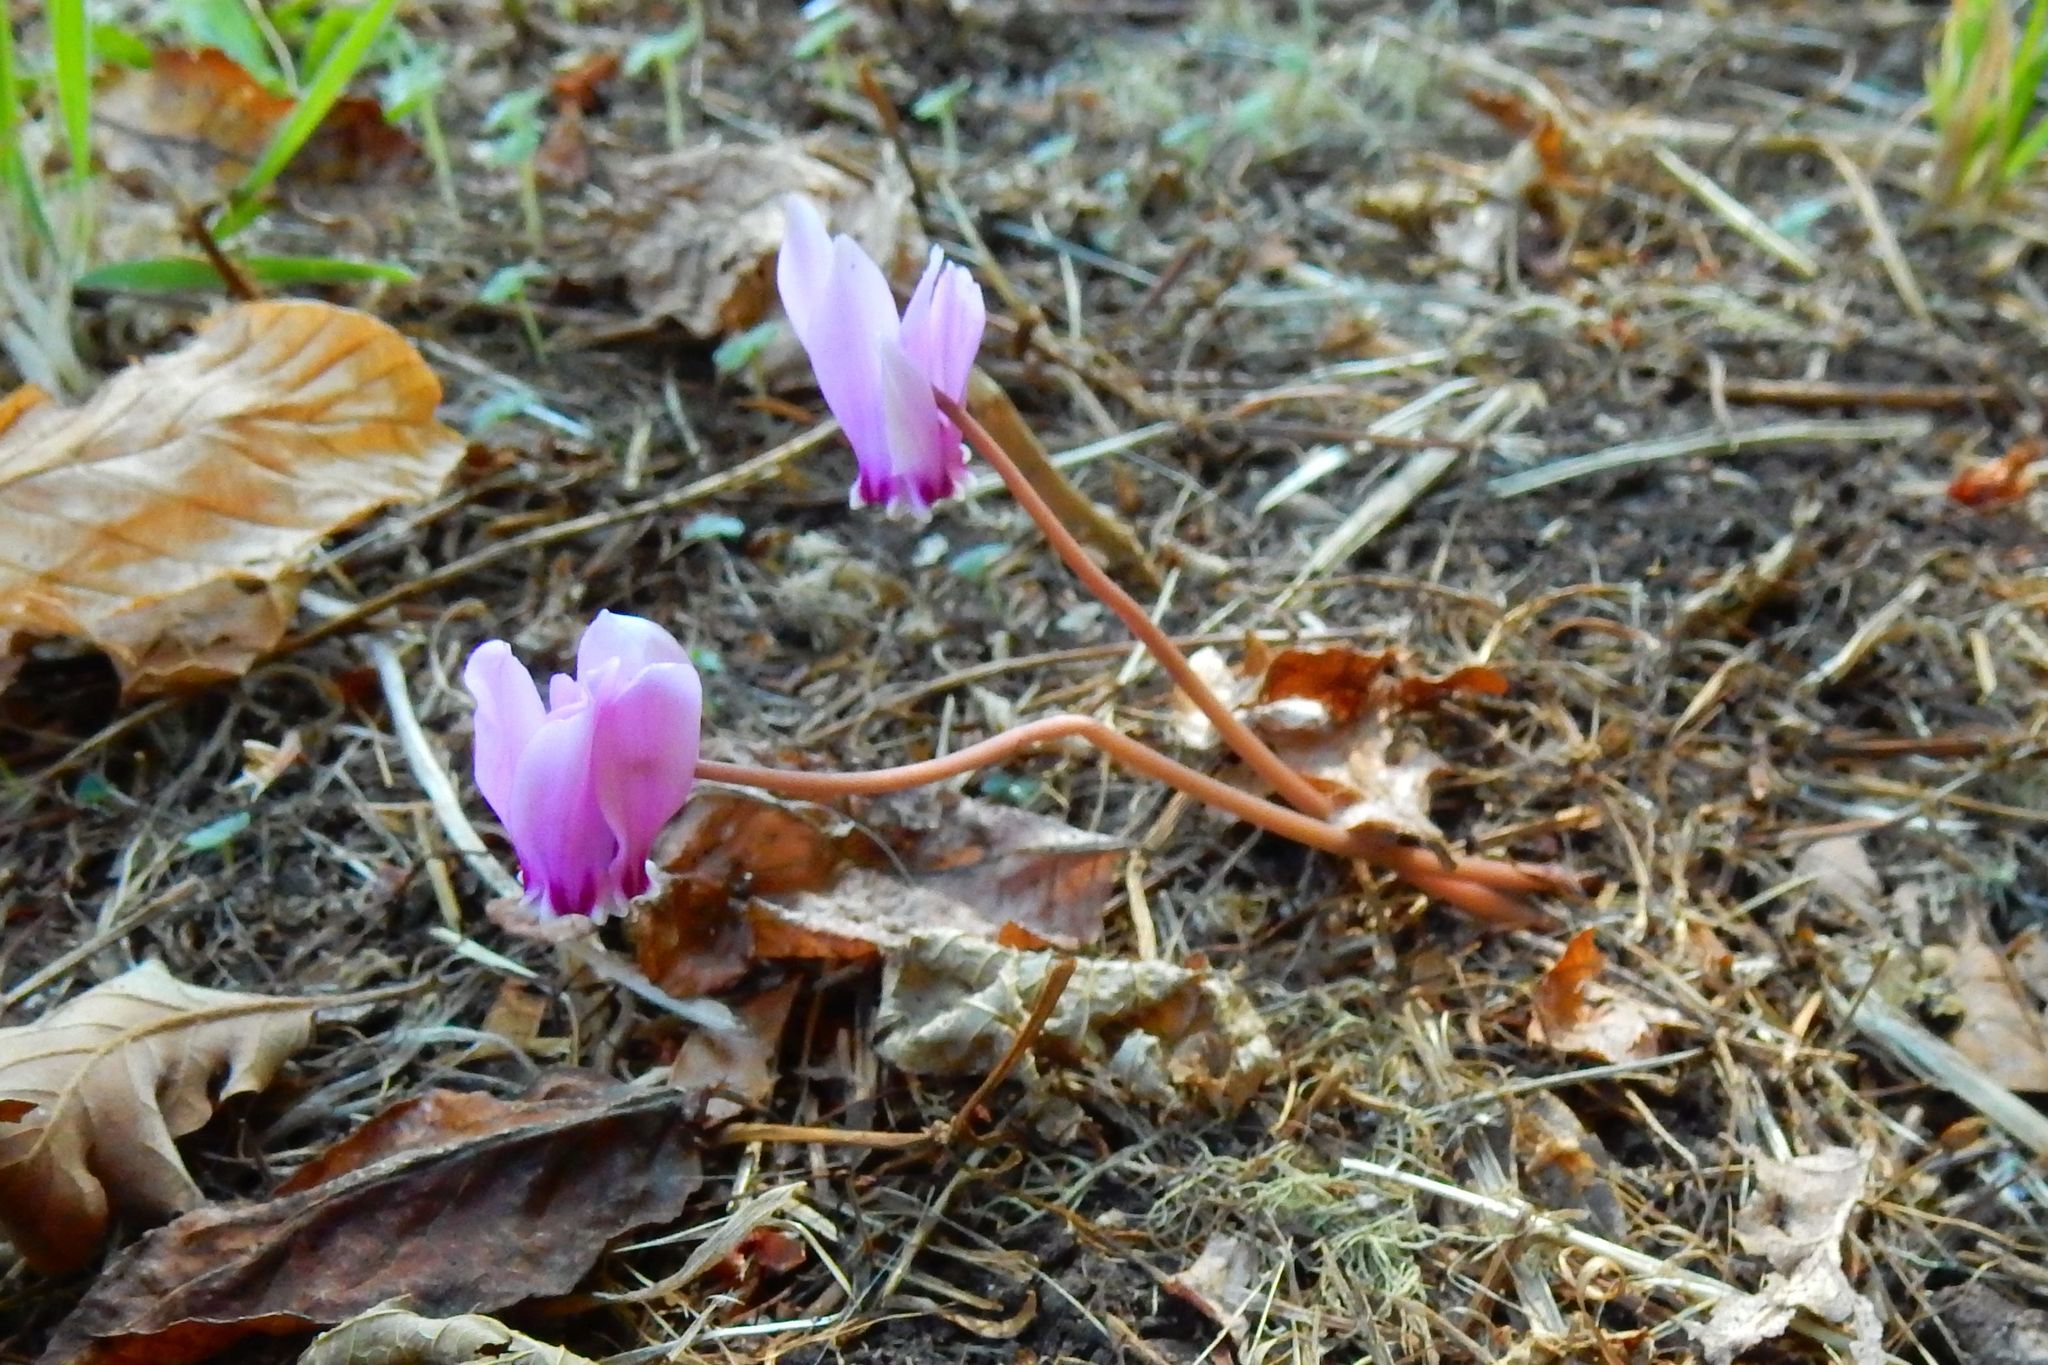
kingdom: Plantae
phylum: Tracheophyta
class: Magnoliopsida
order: Ericales
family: Primulaceae
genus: Cyclamen
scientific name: Cyclamen hederifolium
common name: Sowbread
